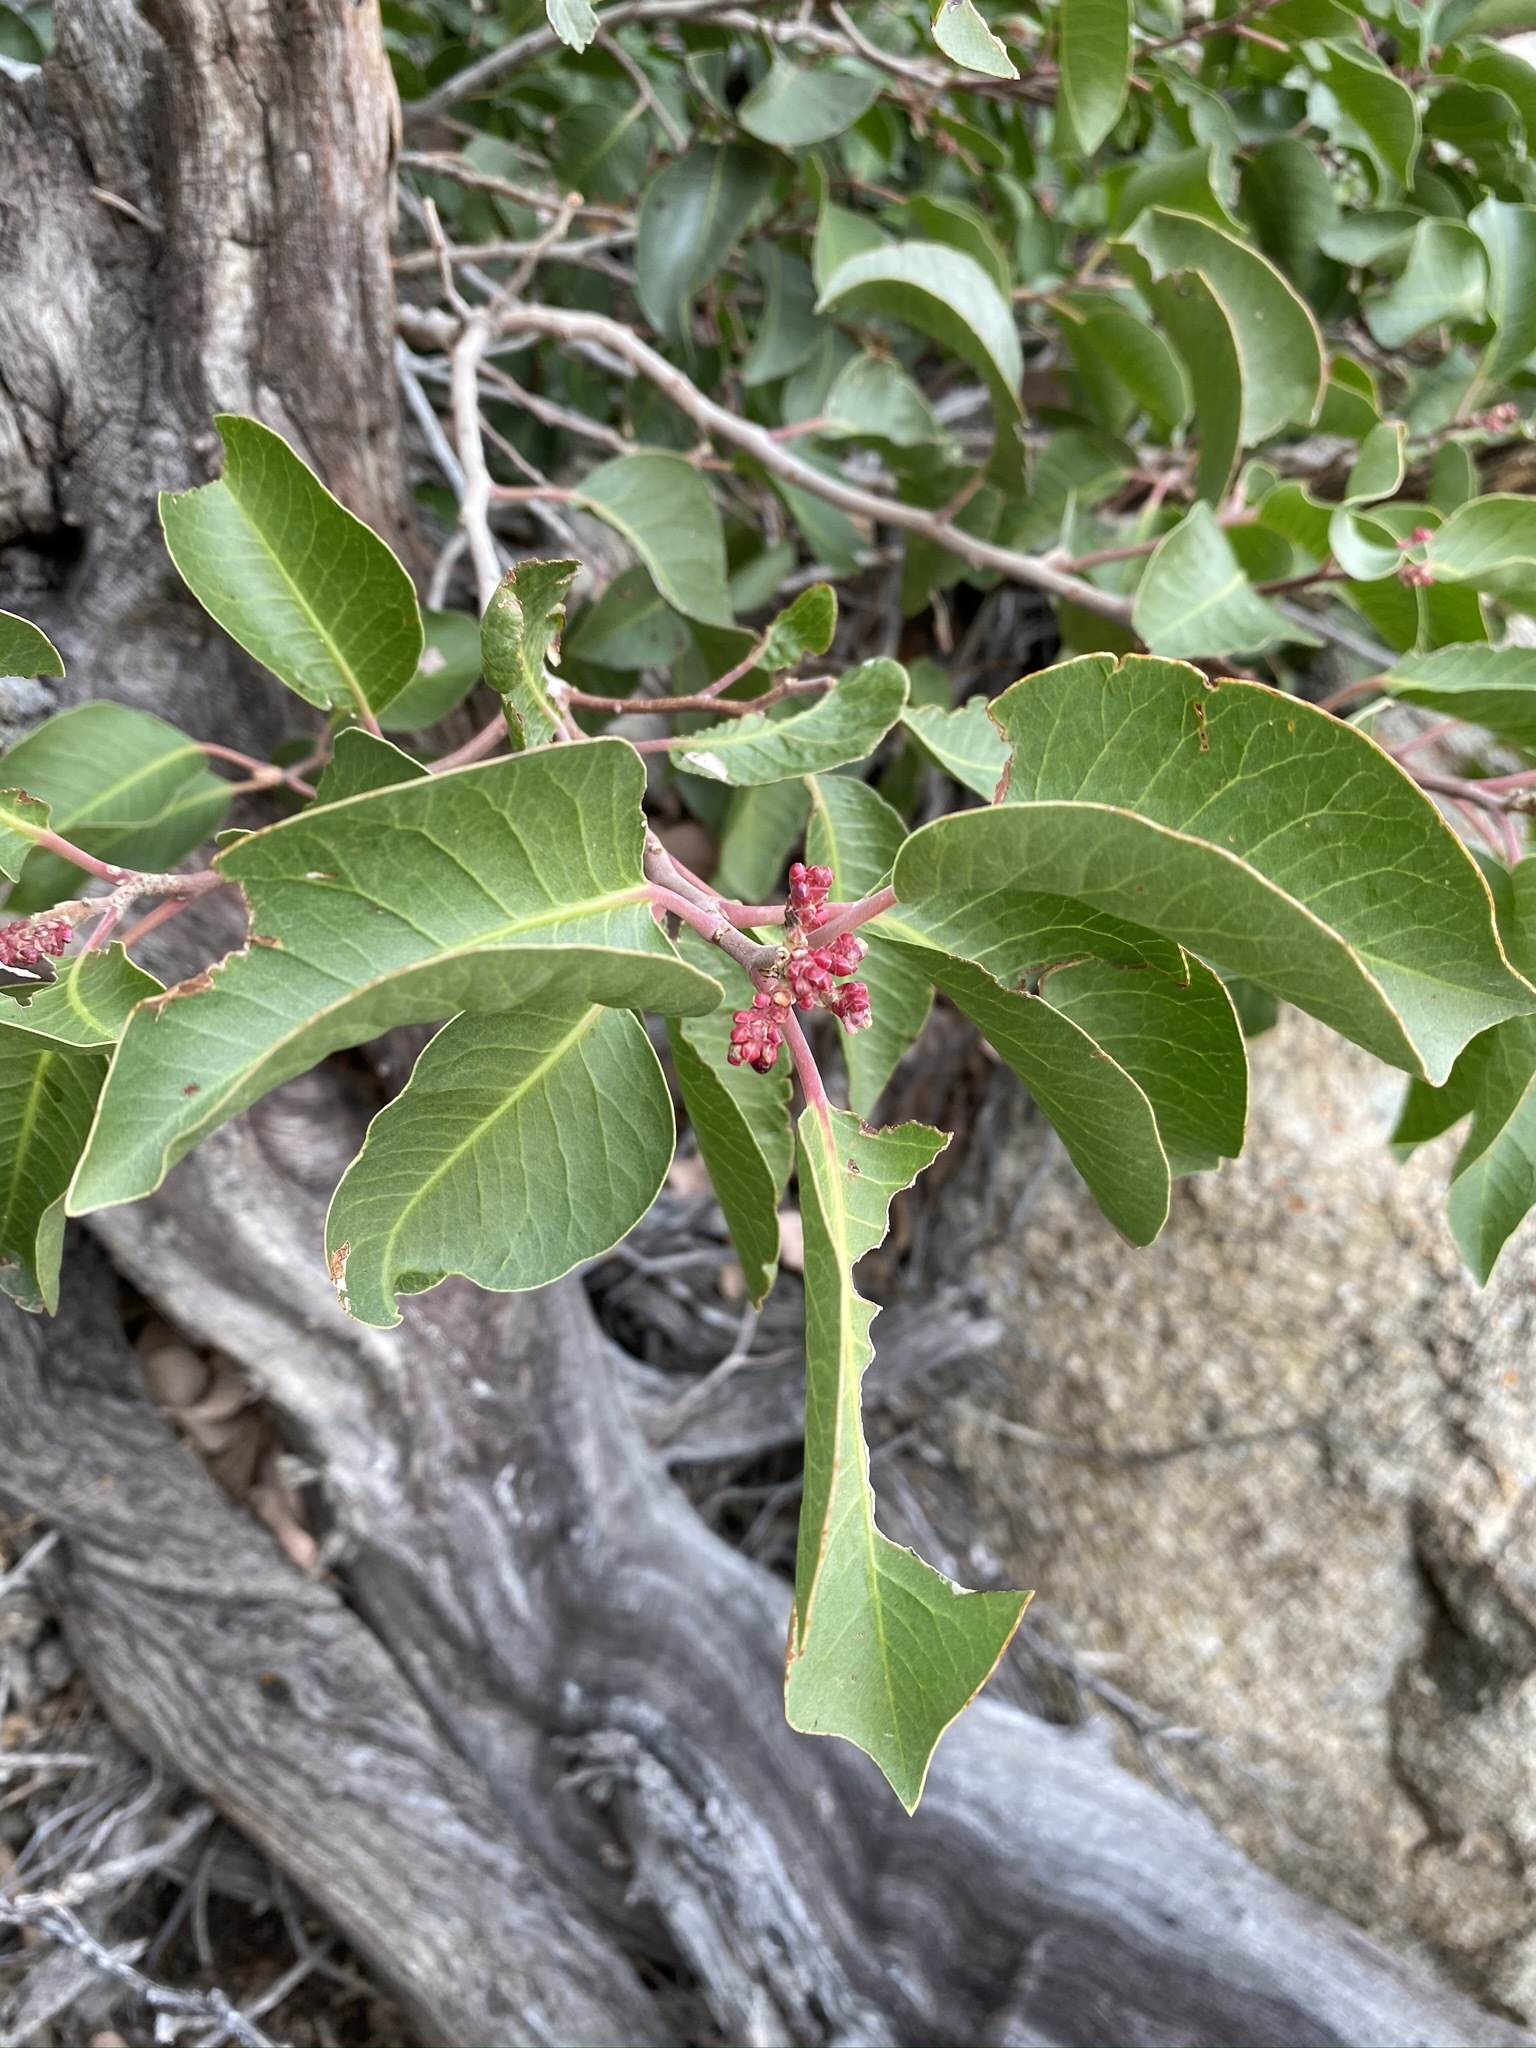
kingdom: Plantae
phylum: Tracheophyta
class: Magnoliopsida
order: Sapindales
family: Anacardiaceae
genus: Rhus
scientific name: Rhus ovata
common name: Sugar sumac
